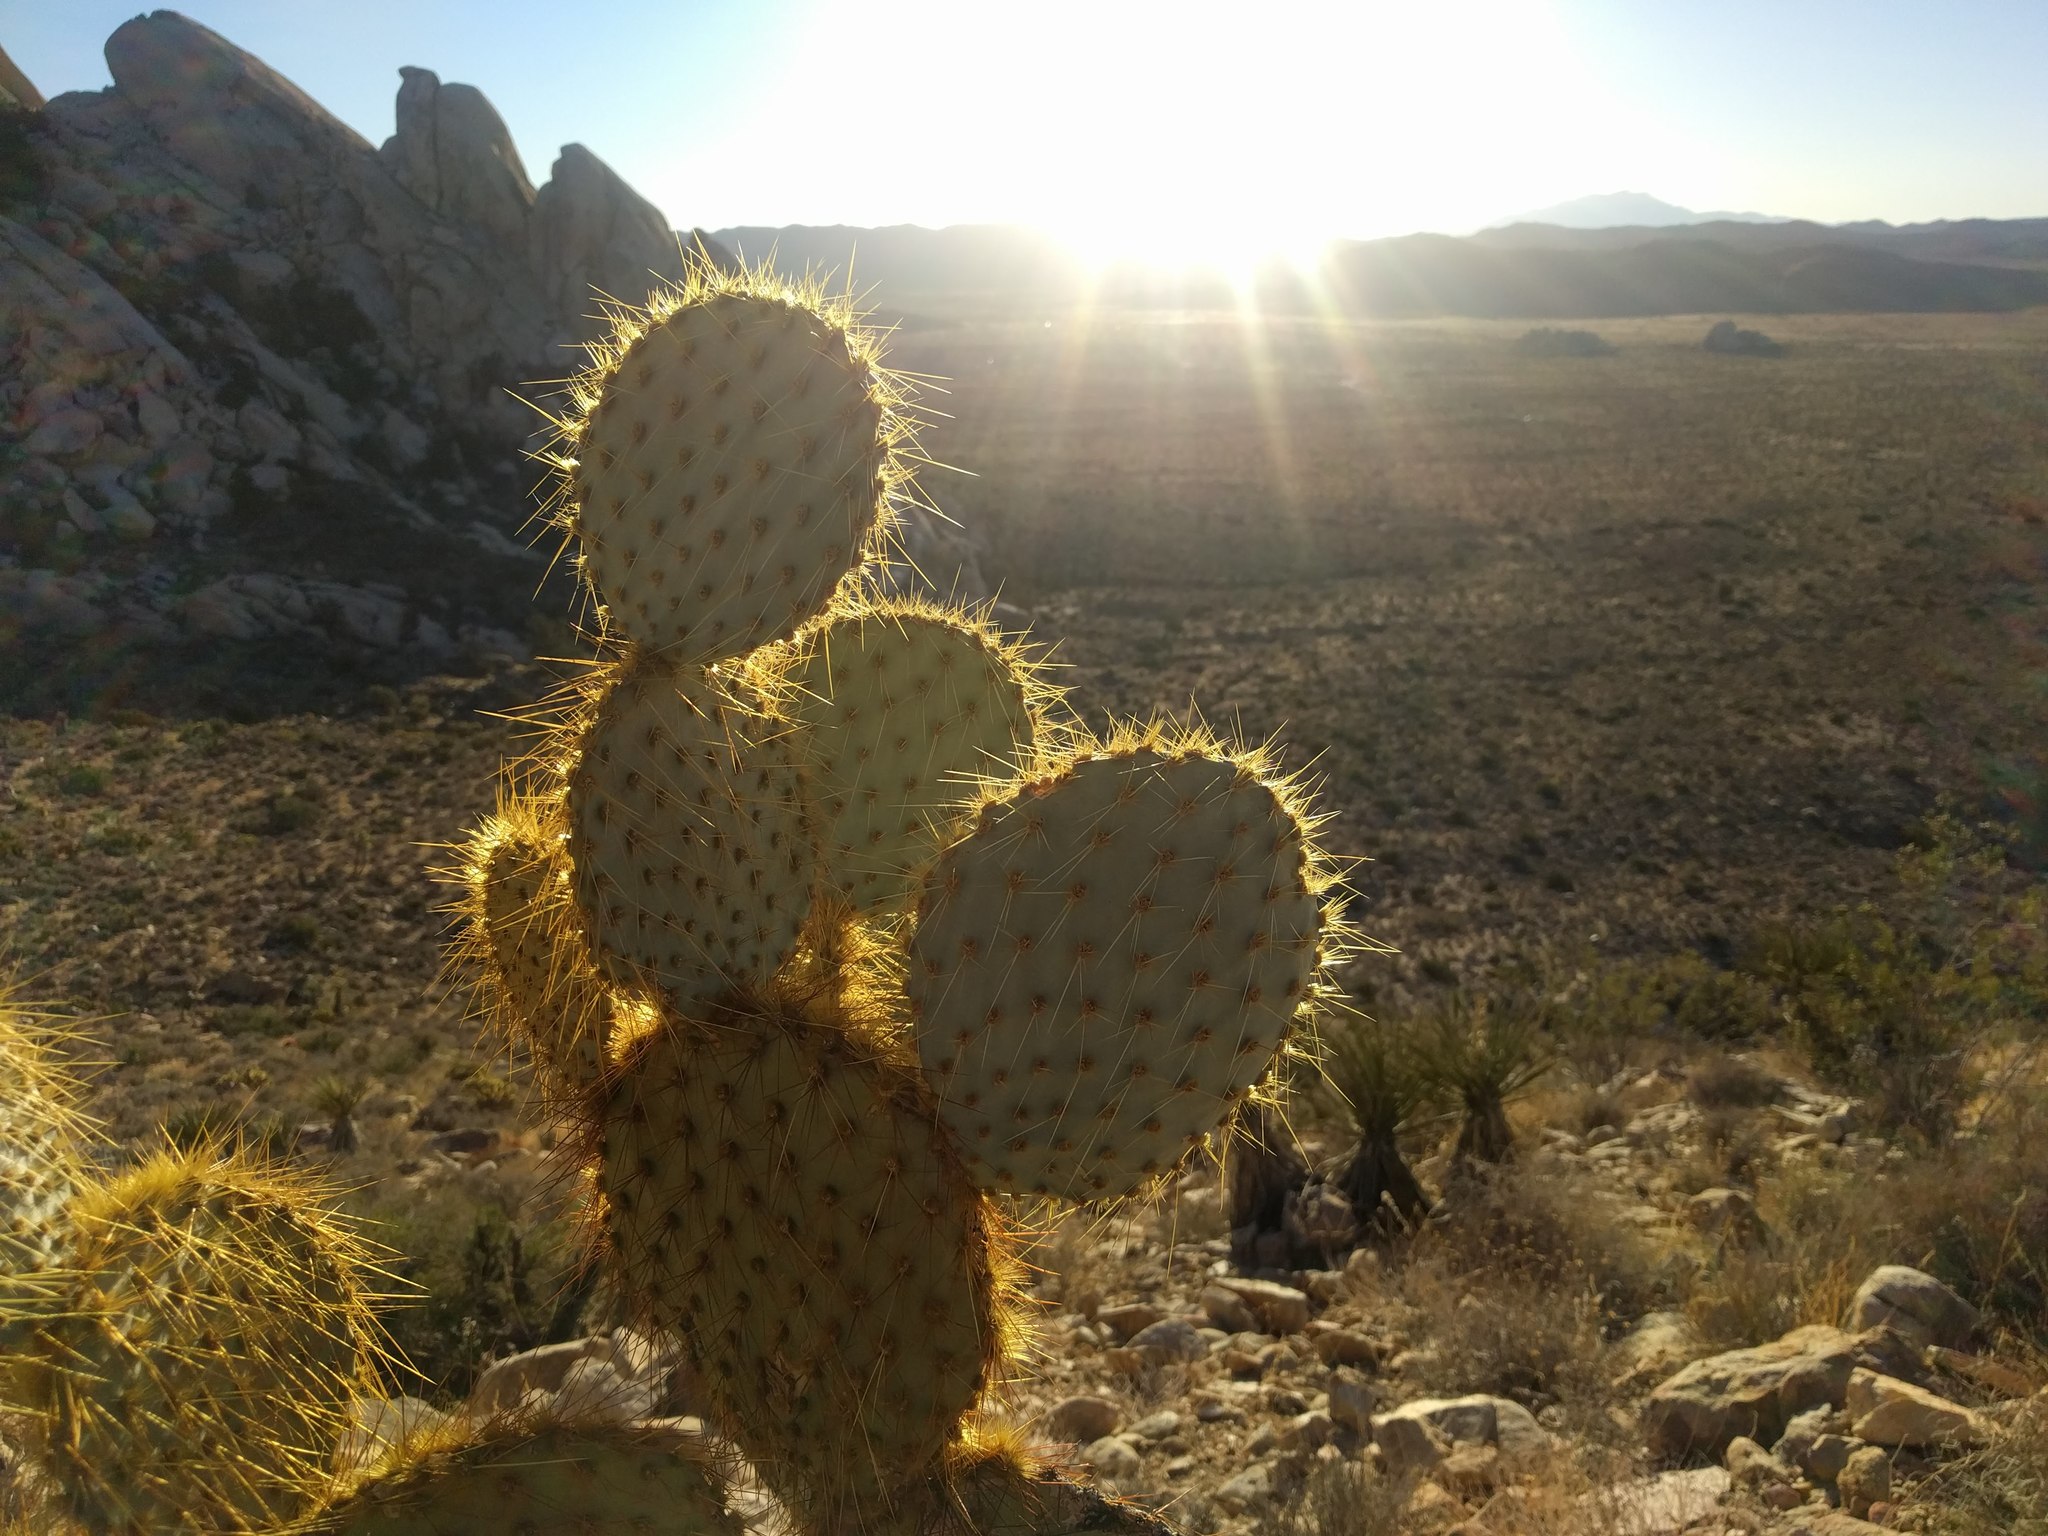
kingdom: Plantae
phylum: Tracheophyta
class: Magnoliopsida
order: Caryophyllales
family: Cactaceae
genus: Opuntia
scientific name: Opuntia chlorotica
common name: Dollar-joint prickly-pear
